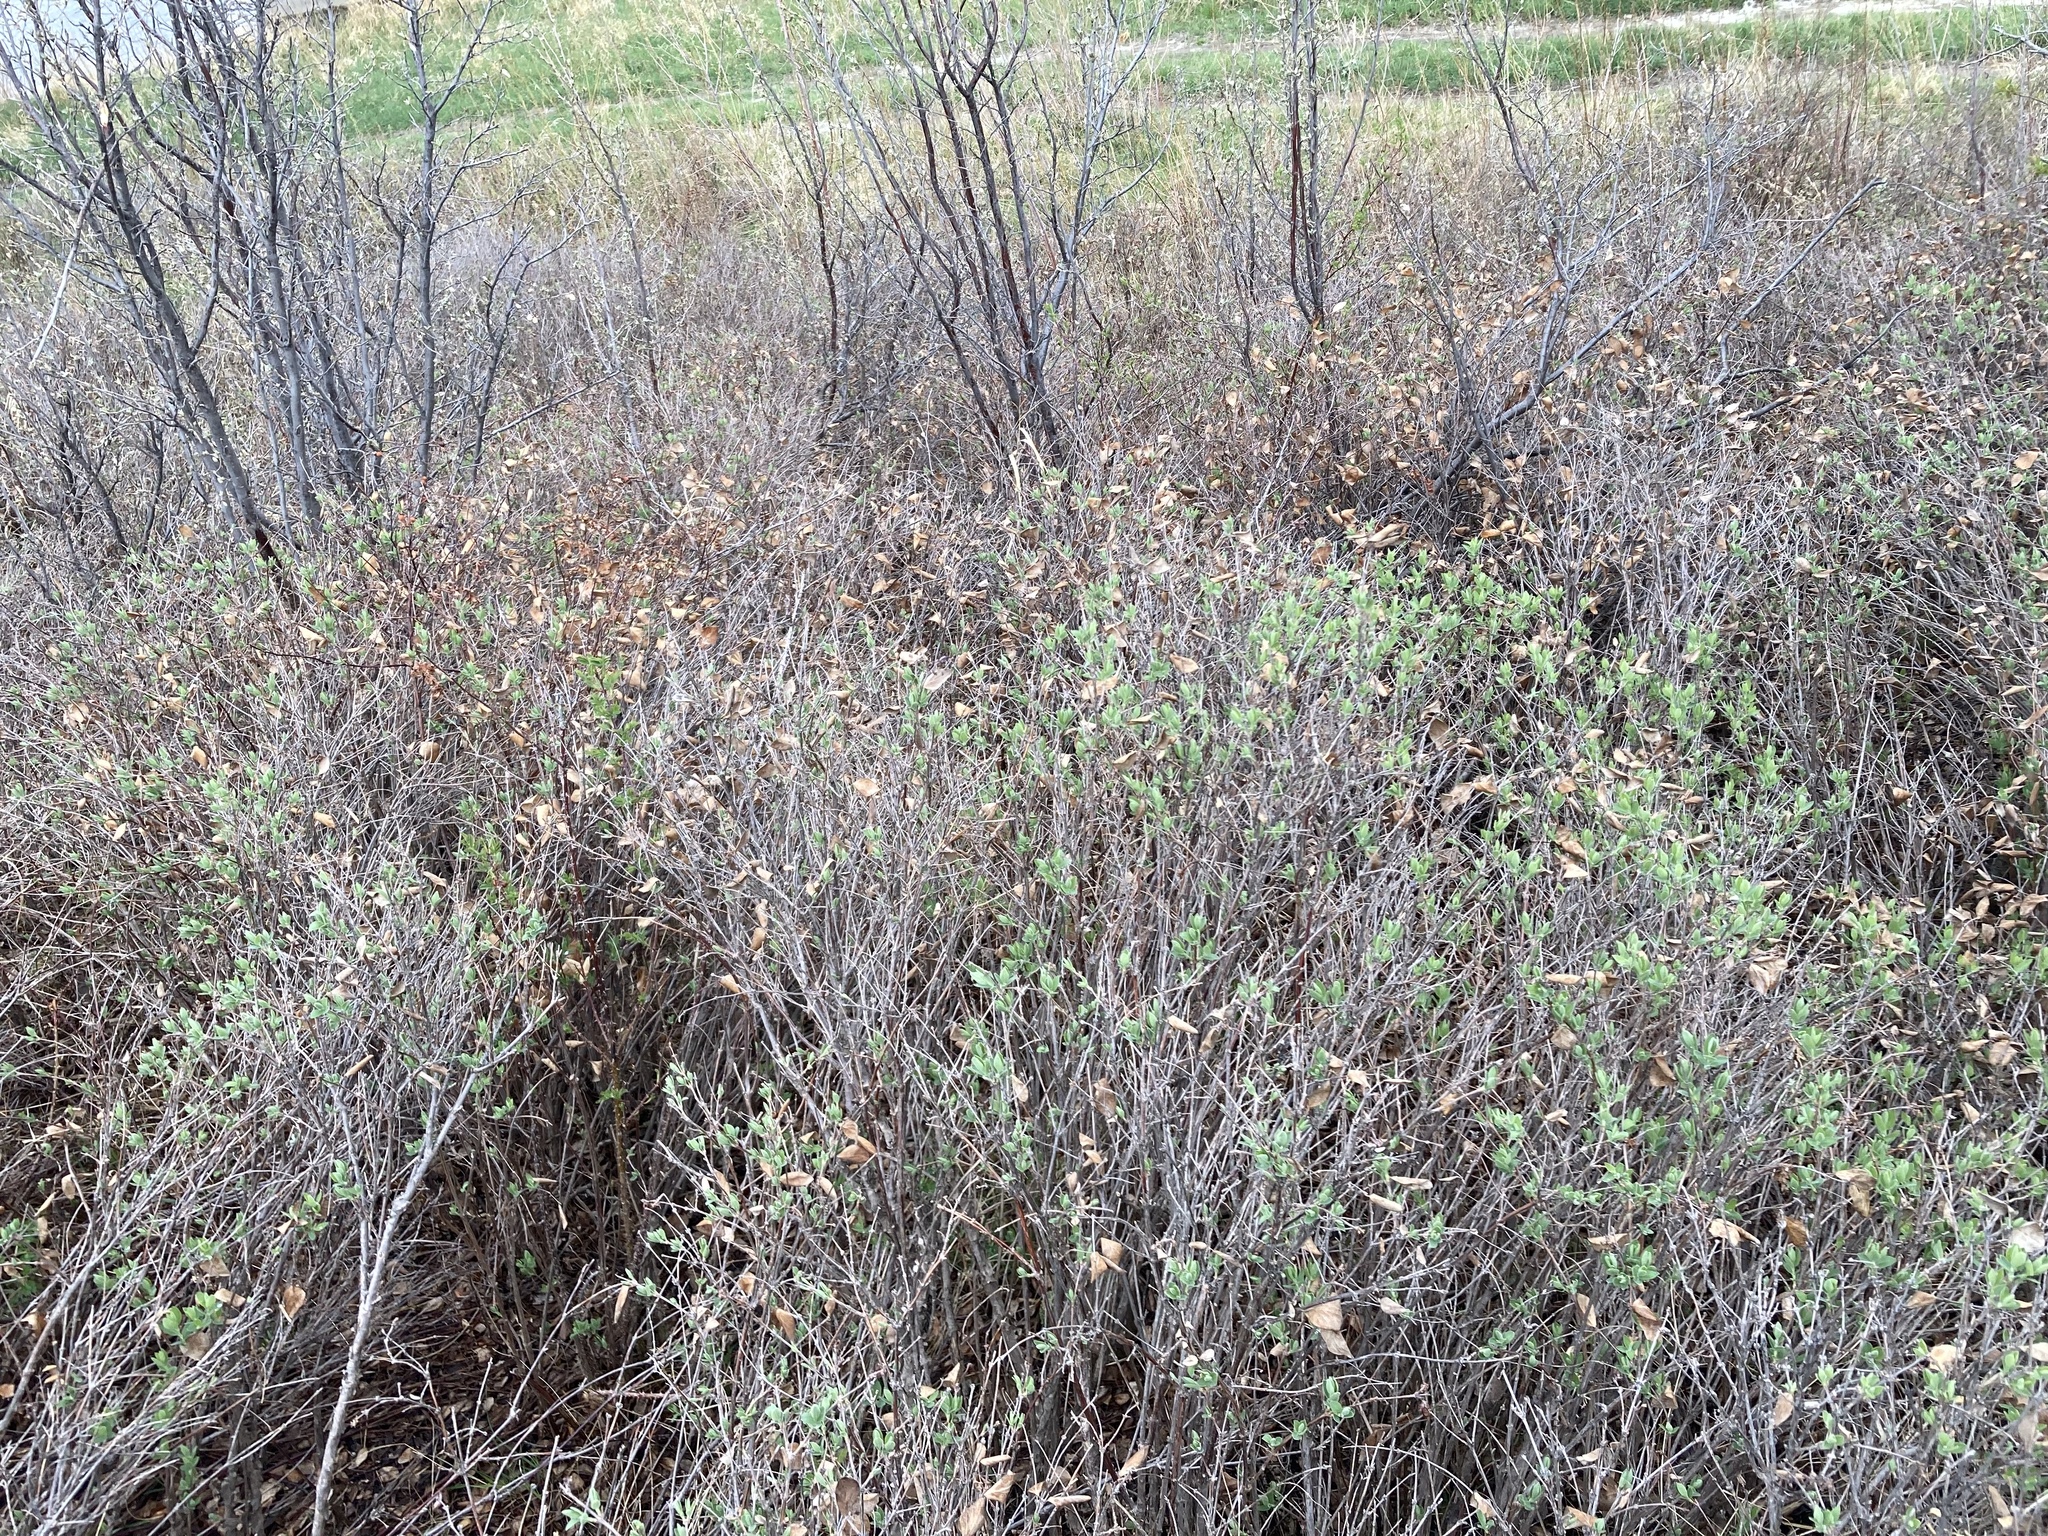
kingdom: Plantae
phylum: Tracheophyta
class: Magnoliopsida
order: Dipsacales
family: Caprifoliaceae
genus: Symphoricarpos
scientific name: Symphoricarpos occidentalis
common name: Wolfberry
